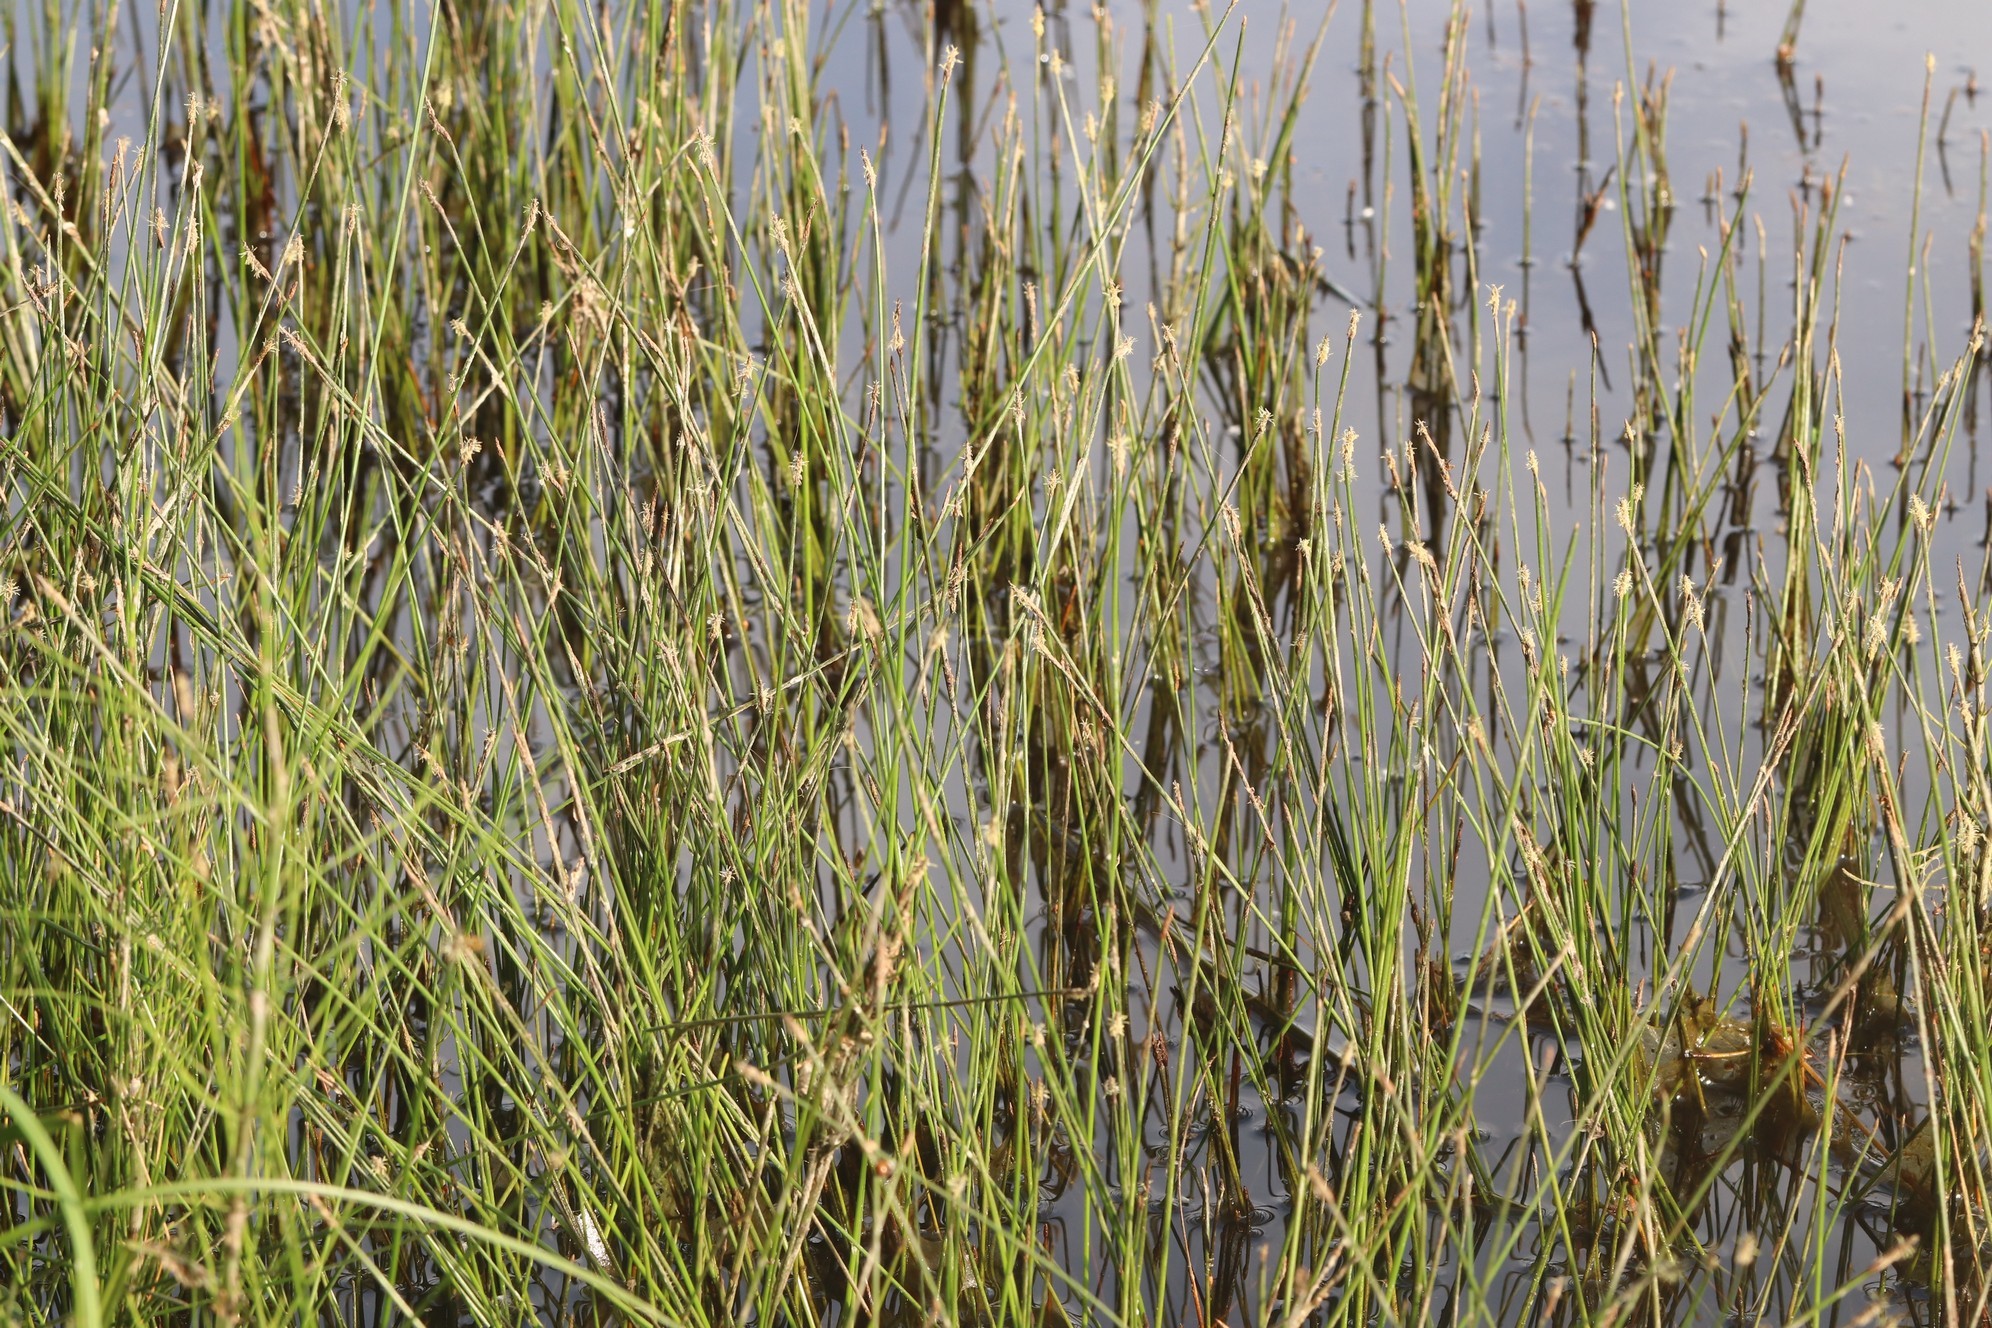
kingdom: Plantae
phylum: Tracheophyta
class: Liliopsida
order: Poales
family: Cyperaceae
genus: Eleocharis
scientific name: Eleocharis palustris
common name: Common spike-rush
